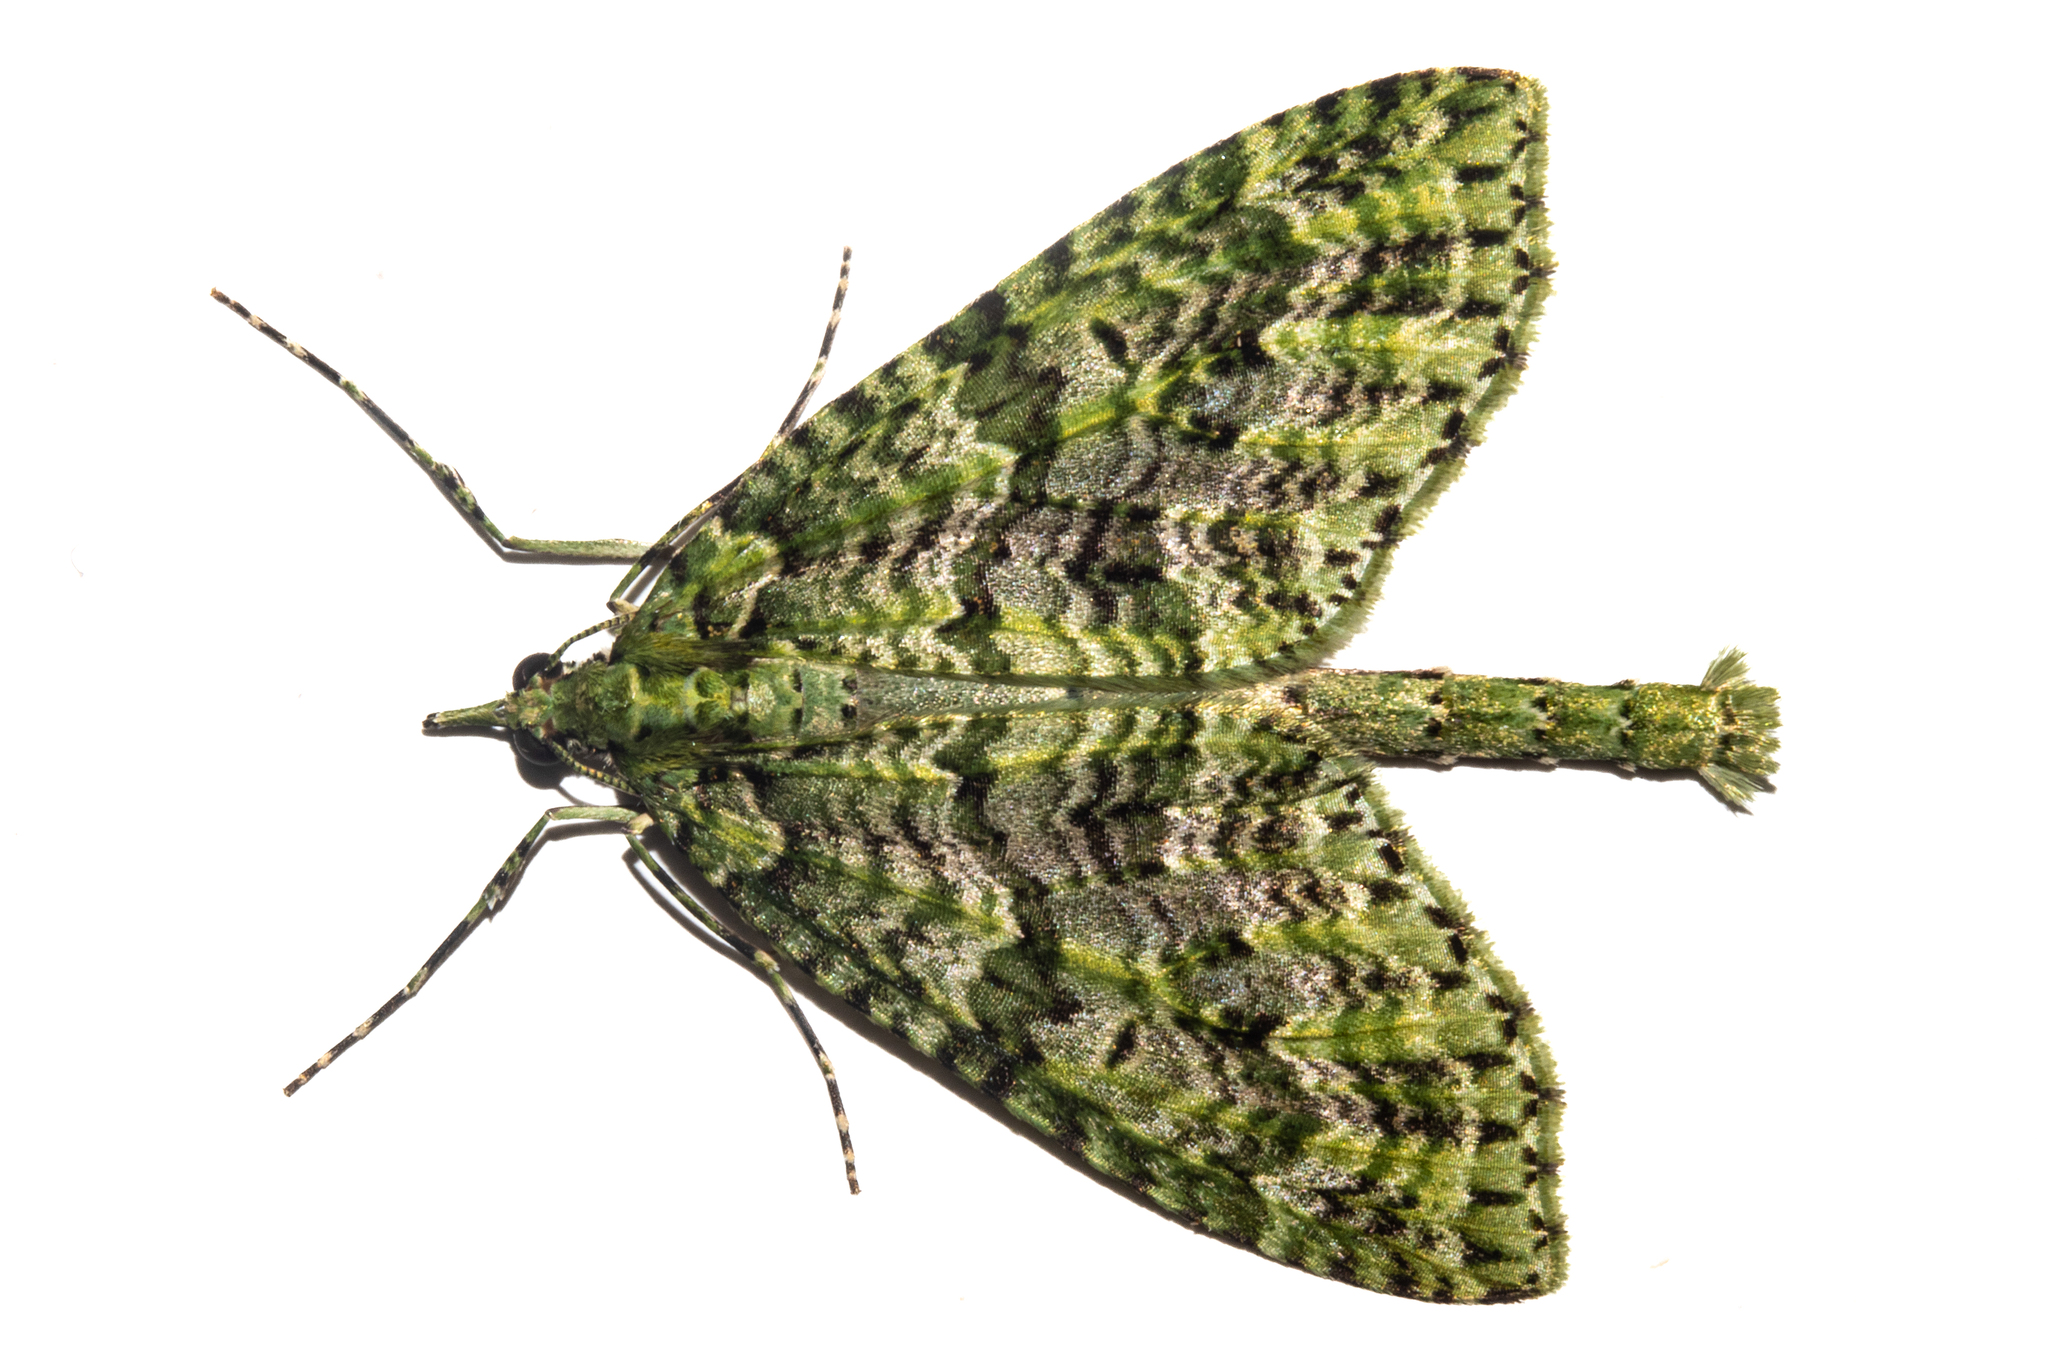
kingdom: Animalia
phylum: Arthropoda
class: Insecta
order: Lepidoptera
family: Geometridae
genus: Tatosoma
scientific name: Tatosoma tipulata
